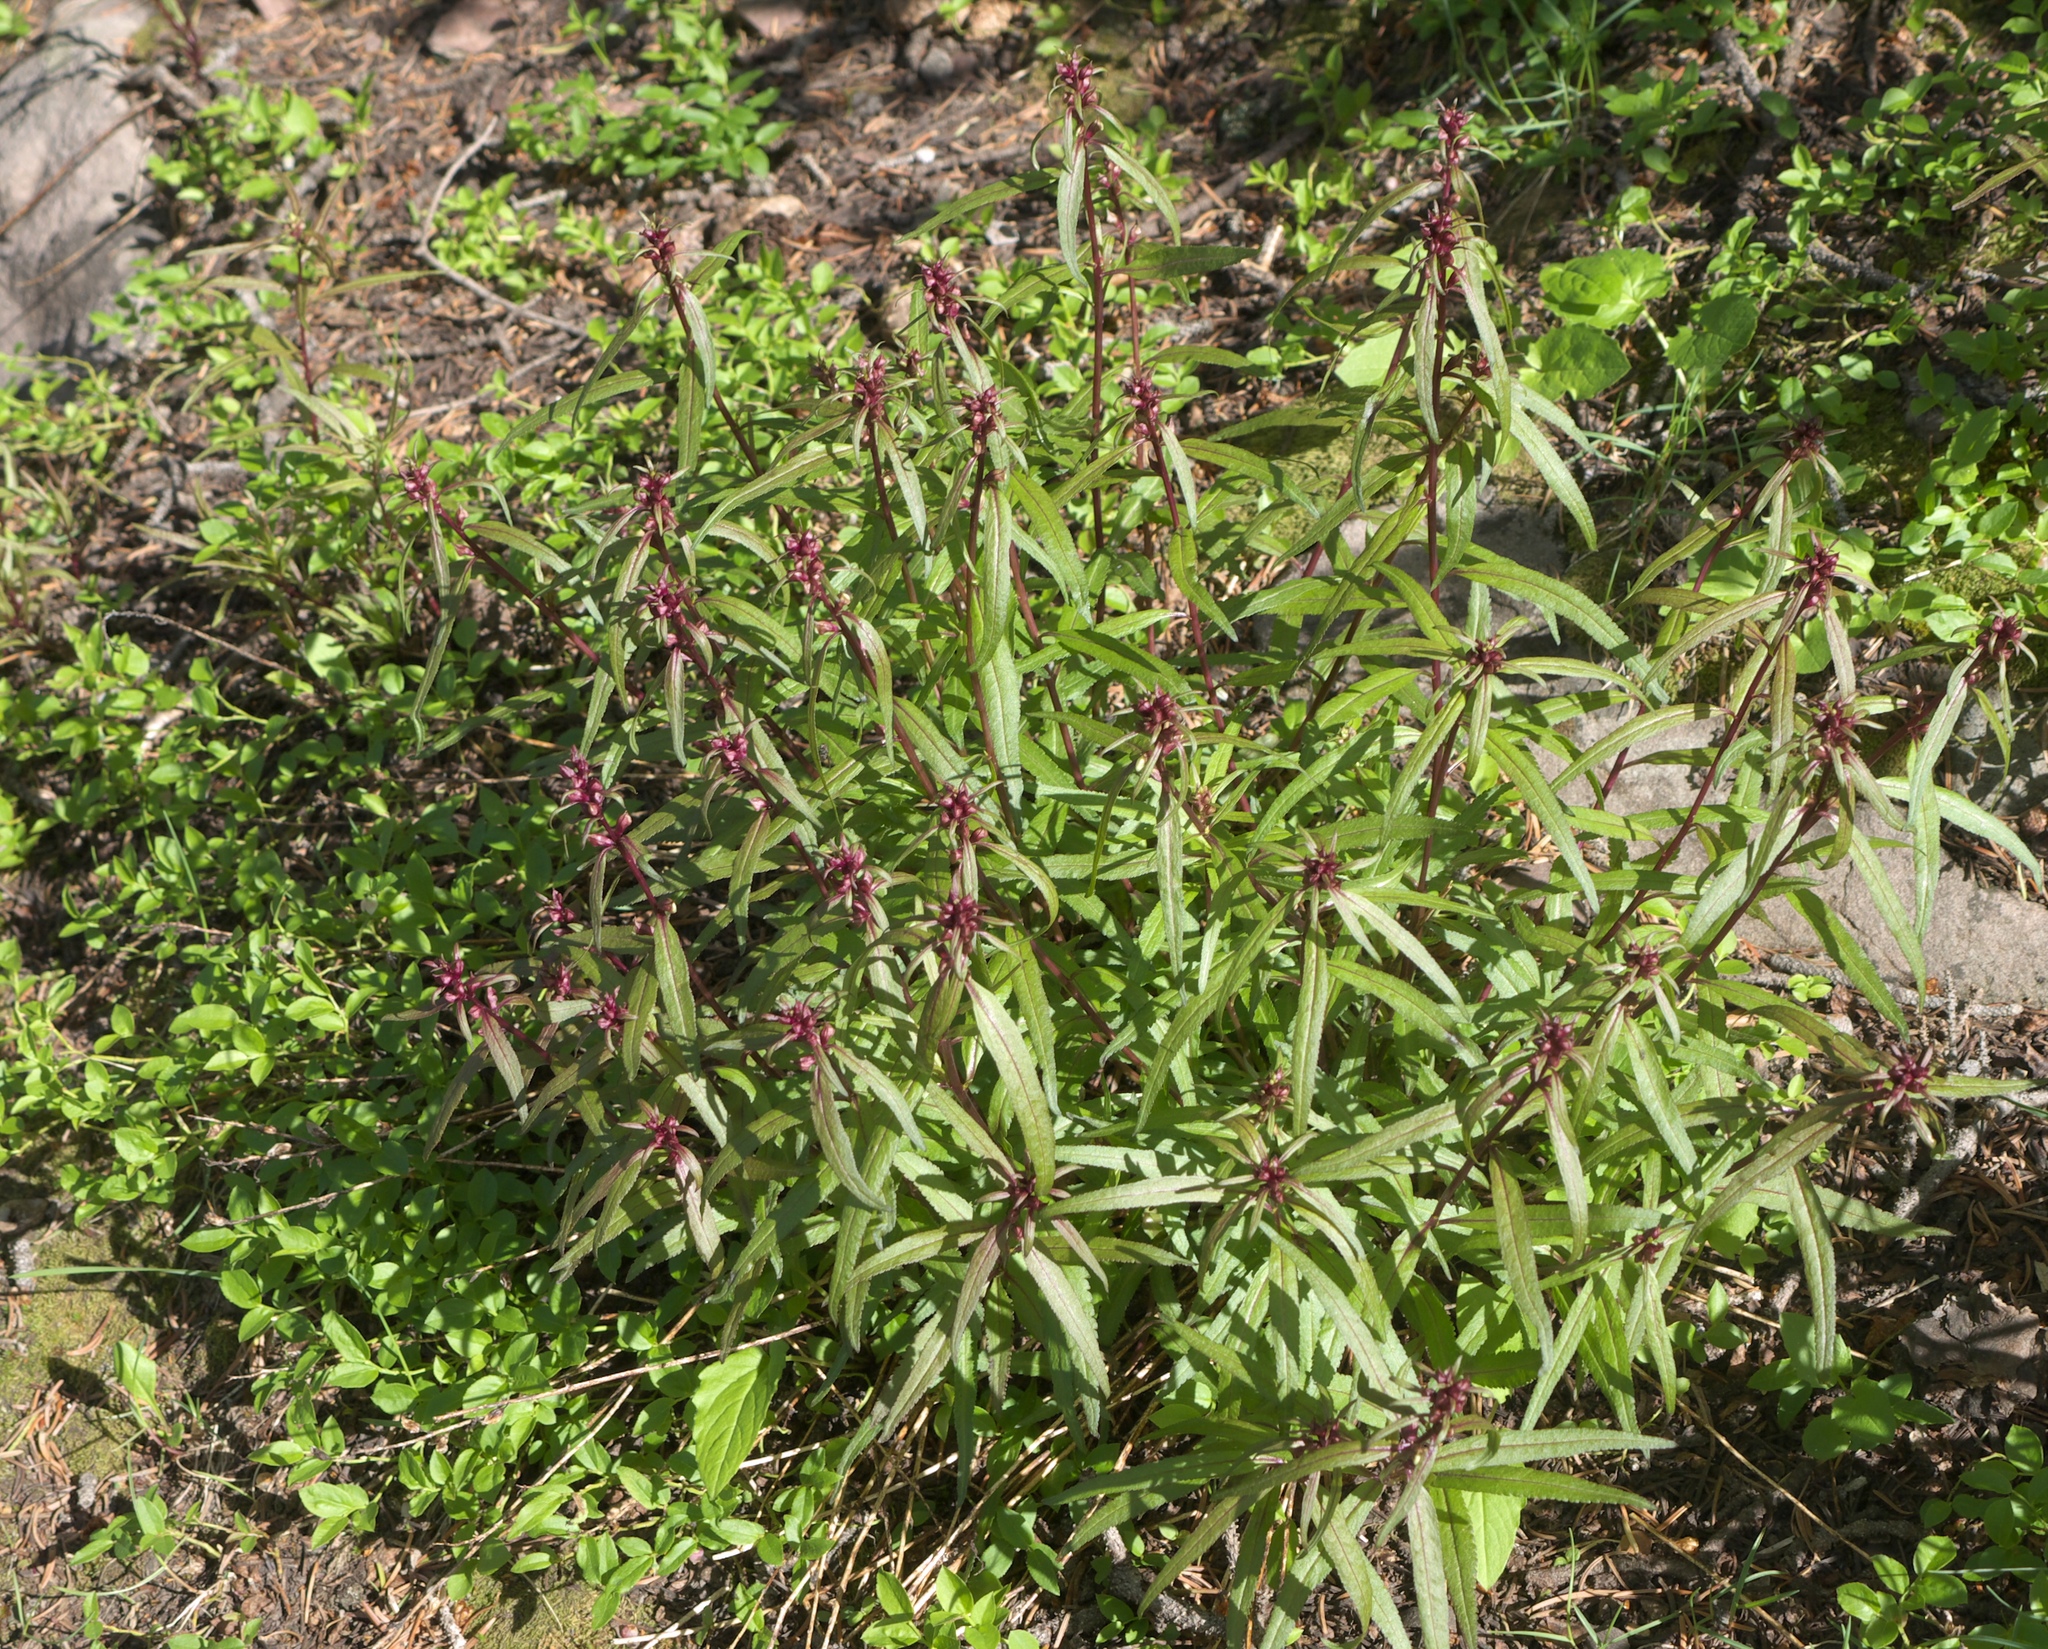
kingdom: Plantae
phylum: Tracheophyta
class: Magnoliopsida
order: Lamiales
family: Orobanchaceae
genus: Pedicularis
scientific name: Pedicularis racemosa
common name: Leafy lousewort
